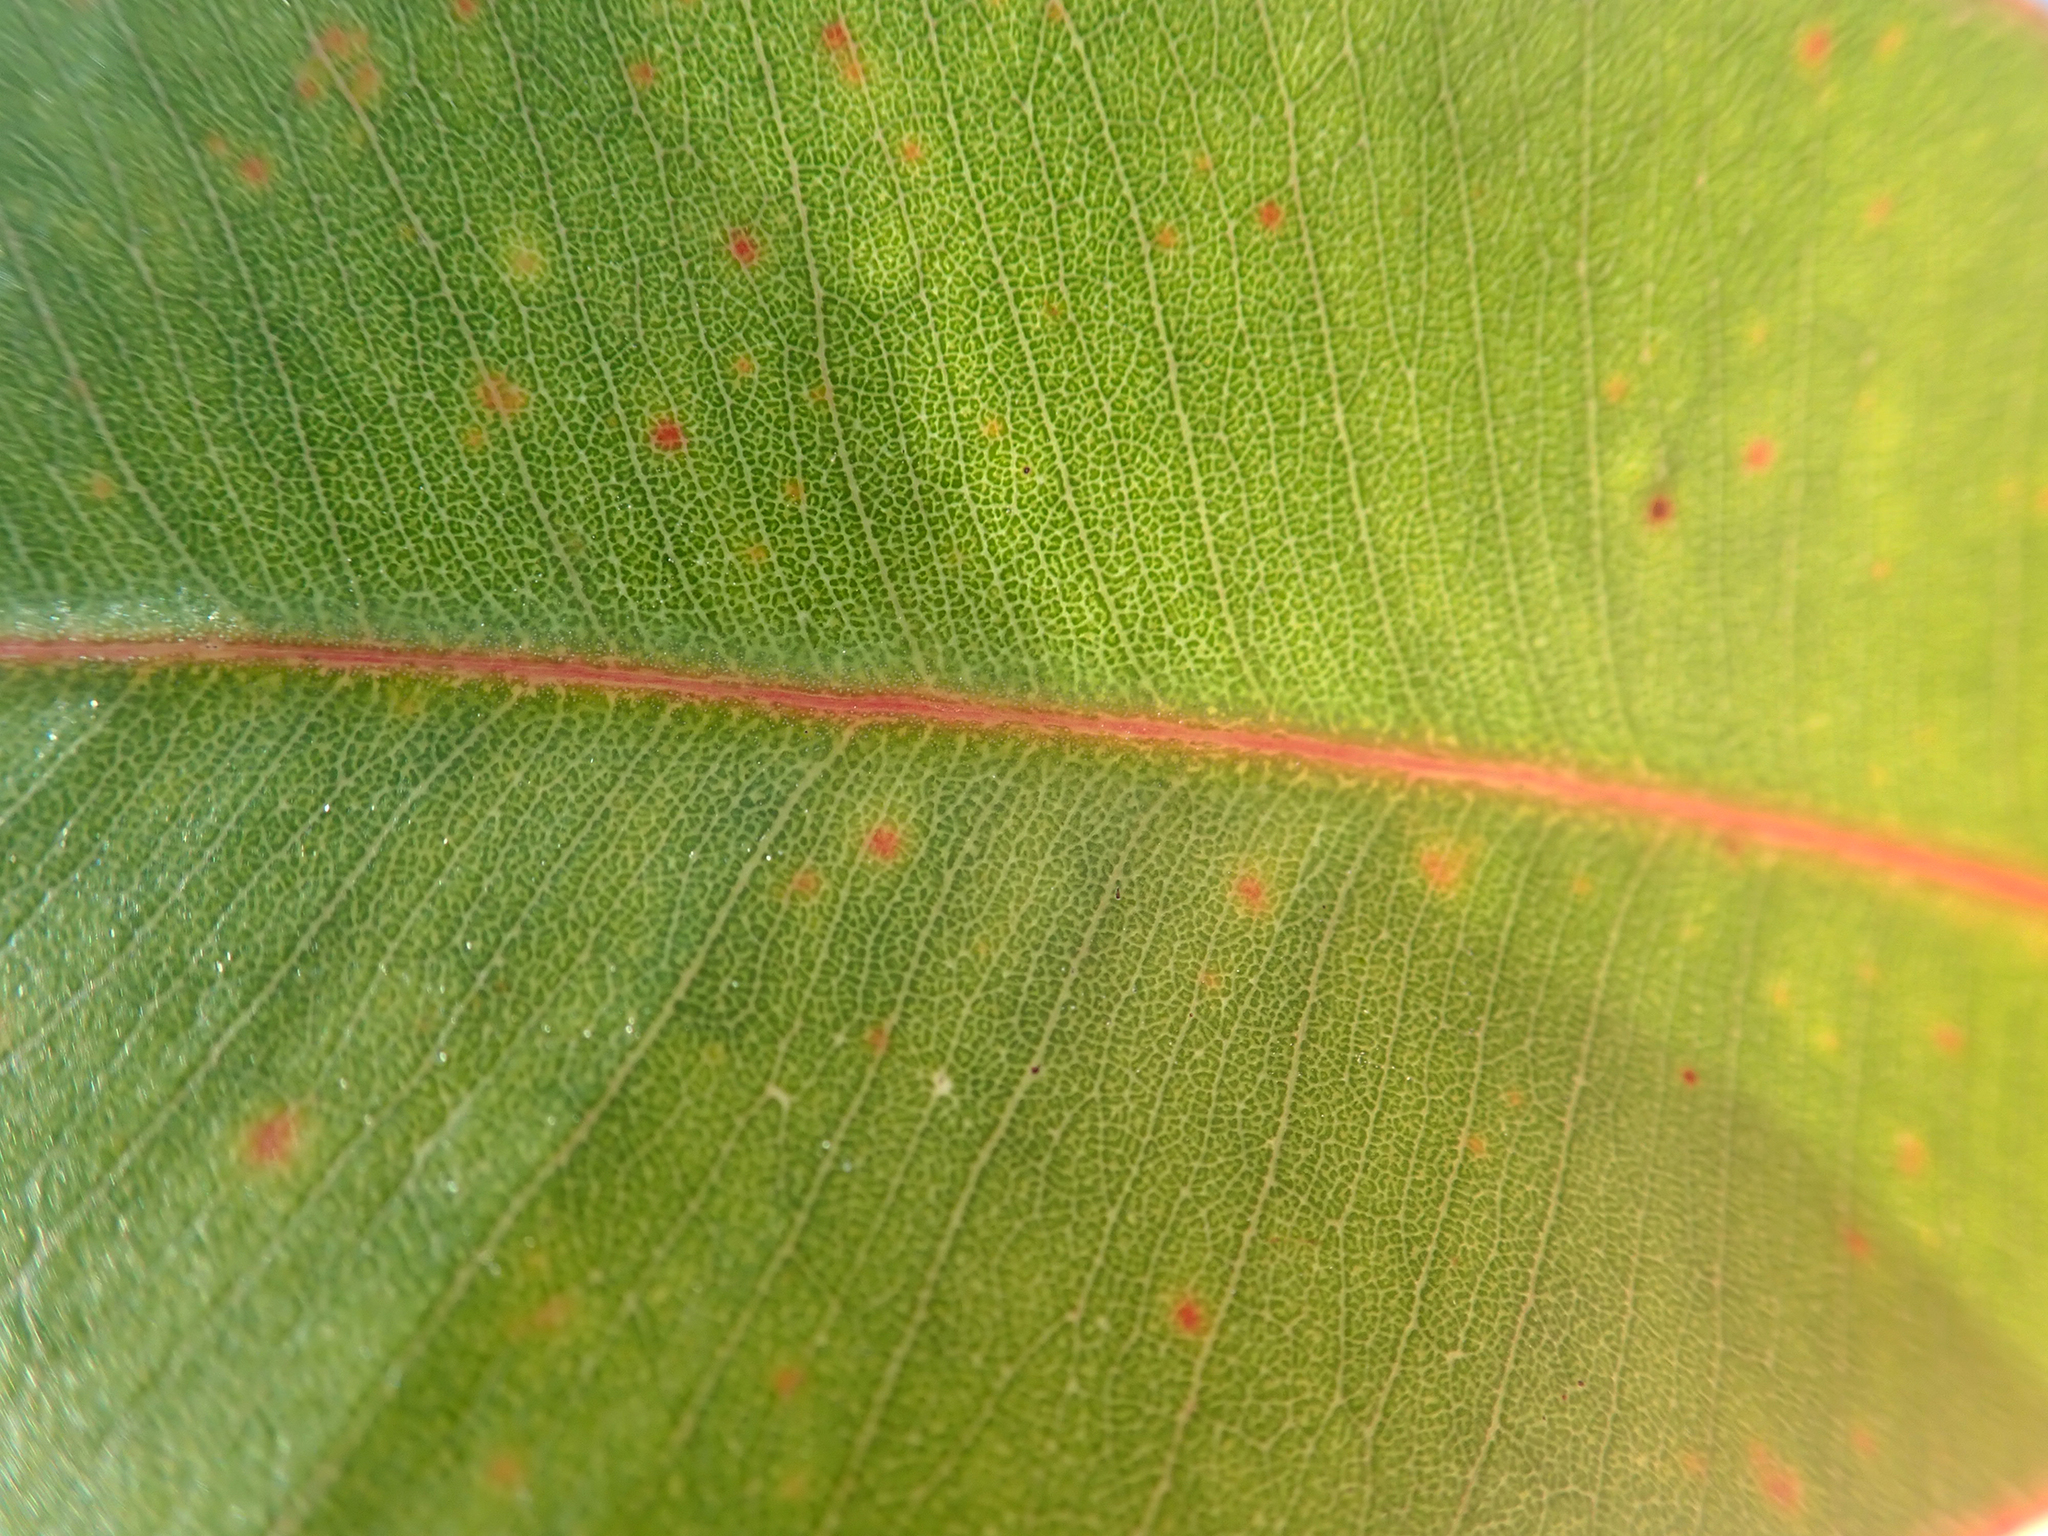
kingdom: Plantae
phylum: Tracheophyta
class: Magnoliopsida
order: Myrtales
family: Myrtaceae
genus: Eucalyptus
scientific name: Eucalyptus botryoides
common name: Bangalay
